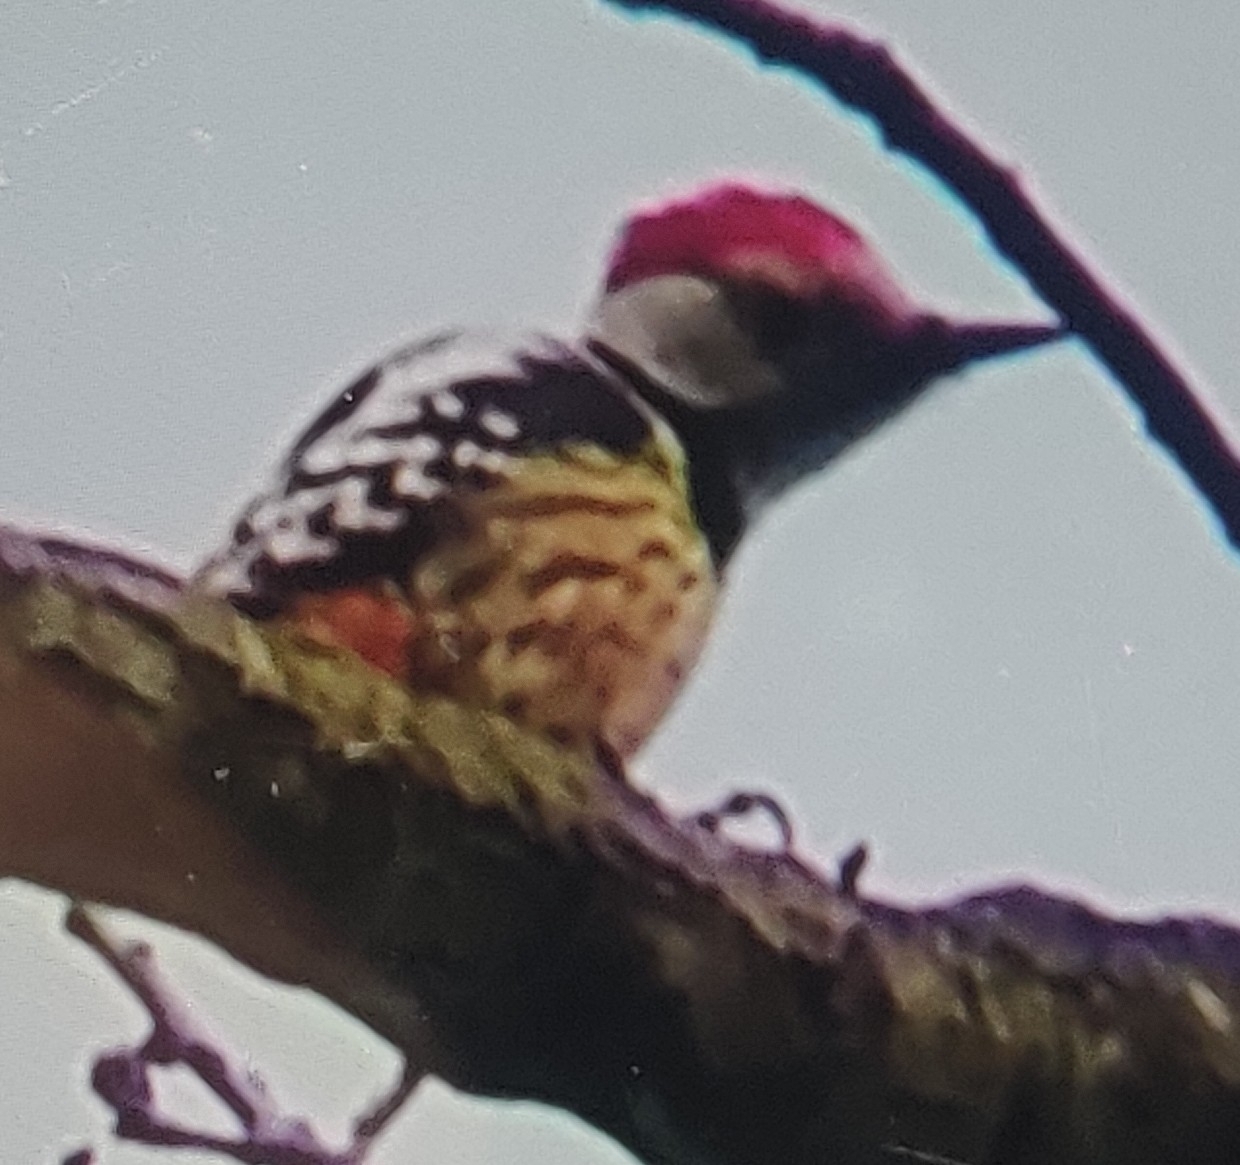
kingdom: Animalia
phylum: Chordata
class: Aves
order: Piciformes
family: Picidae
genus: Dendrocoptes
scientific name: Dendrocoptes medius
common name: Middle spotted woodpecker
